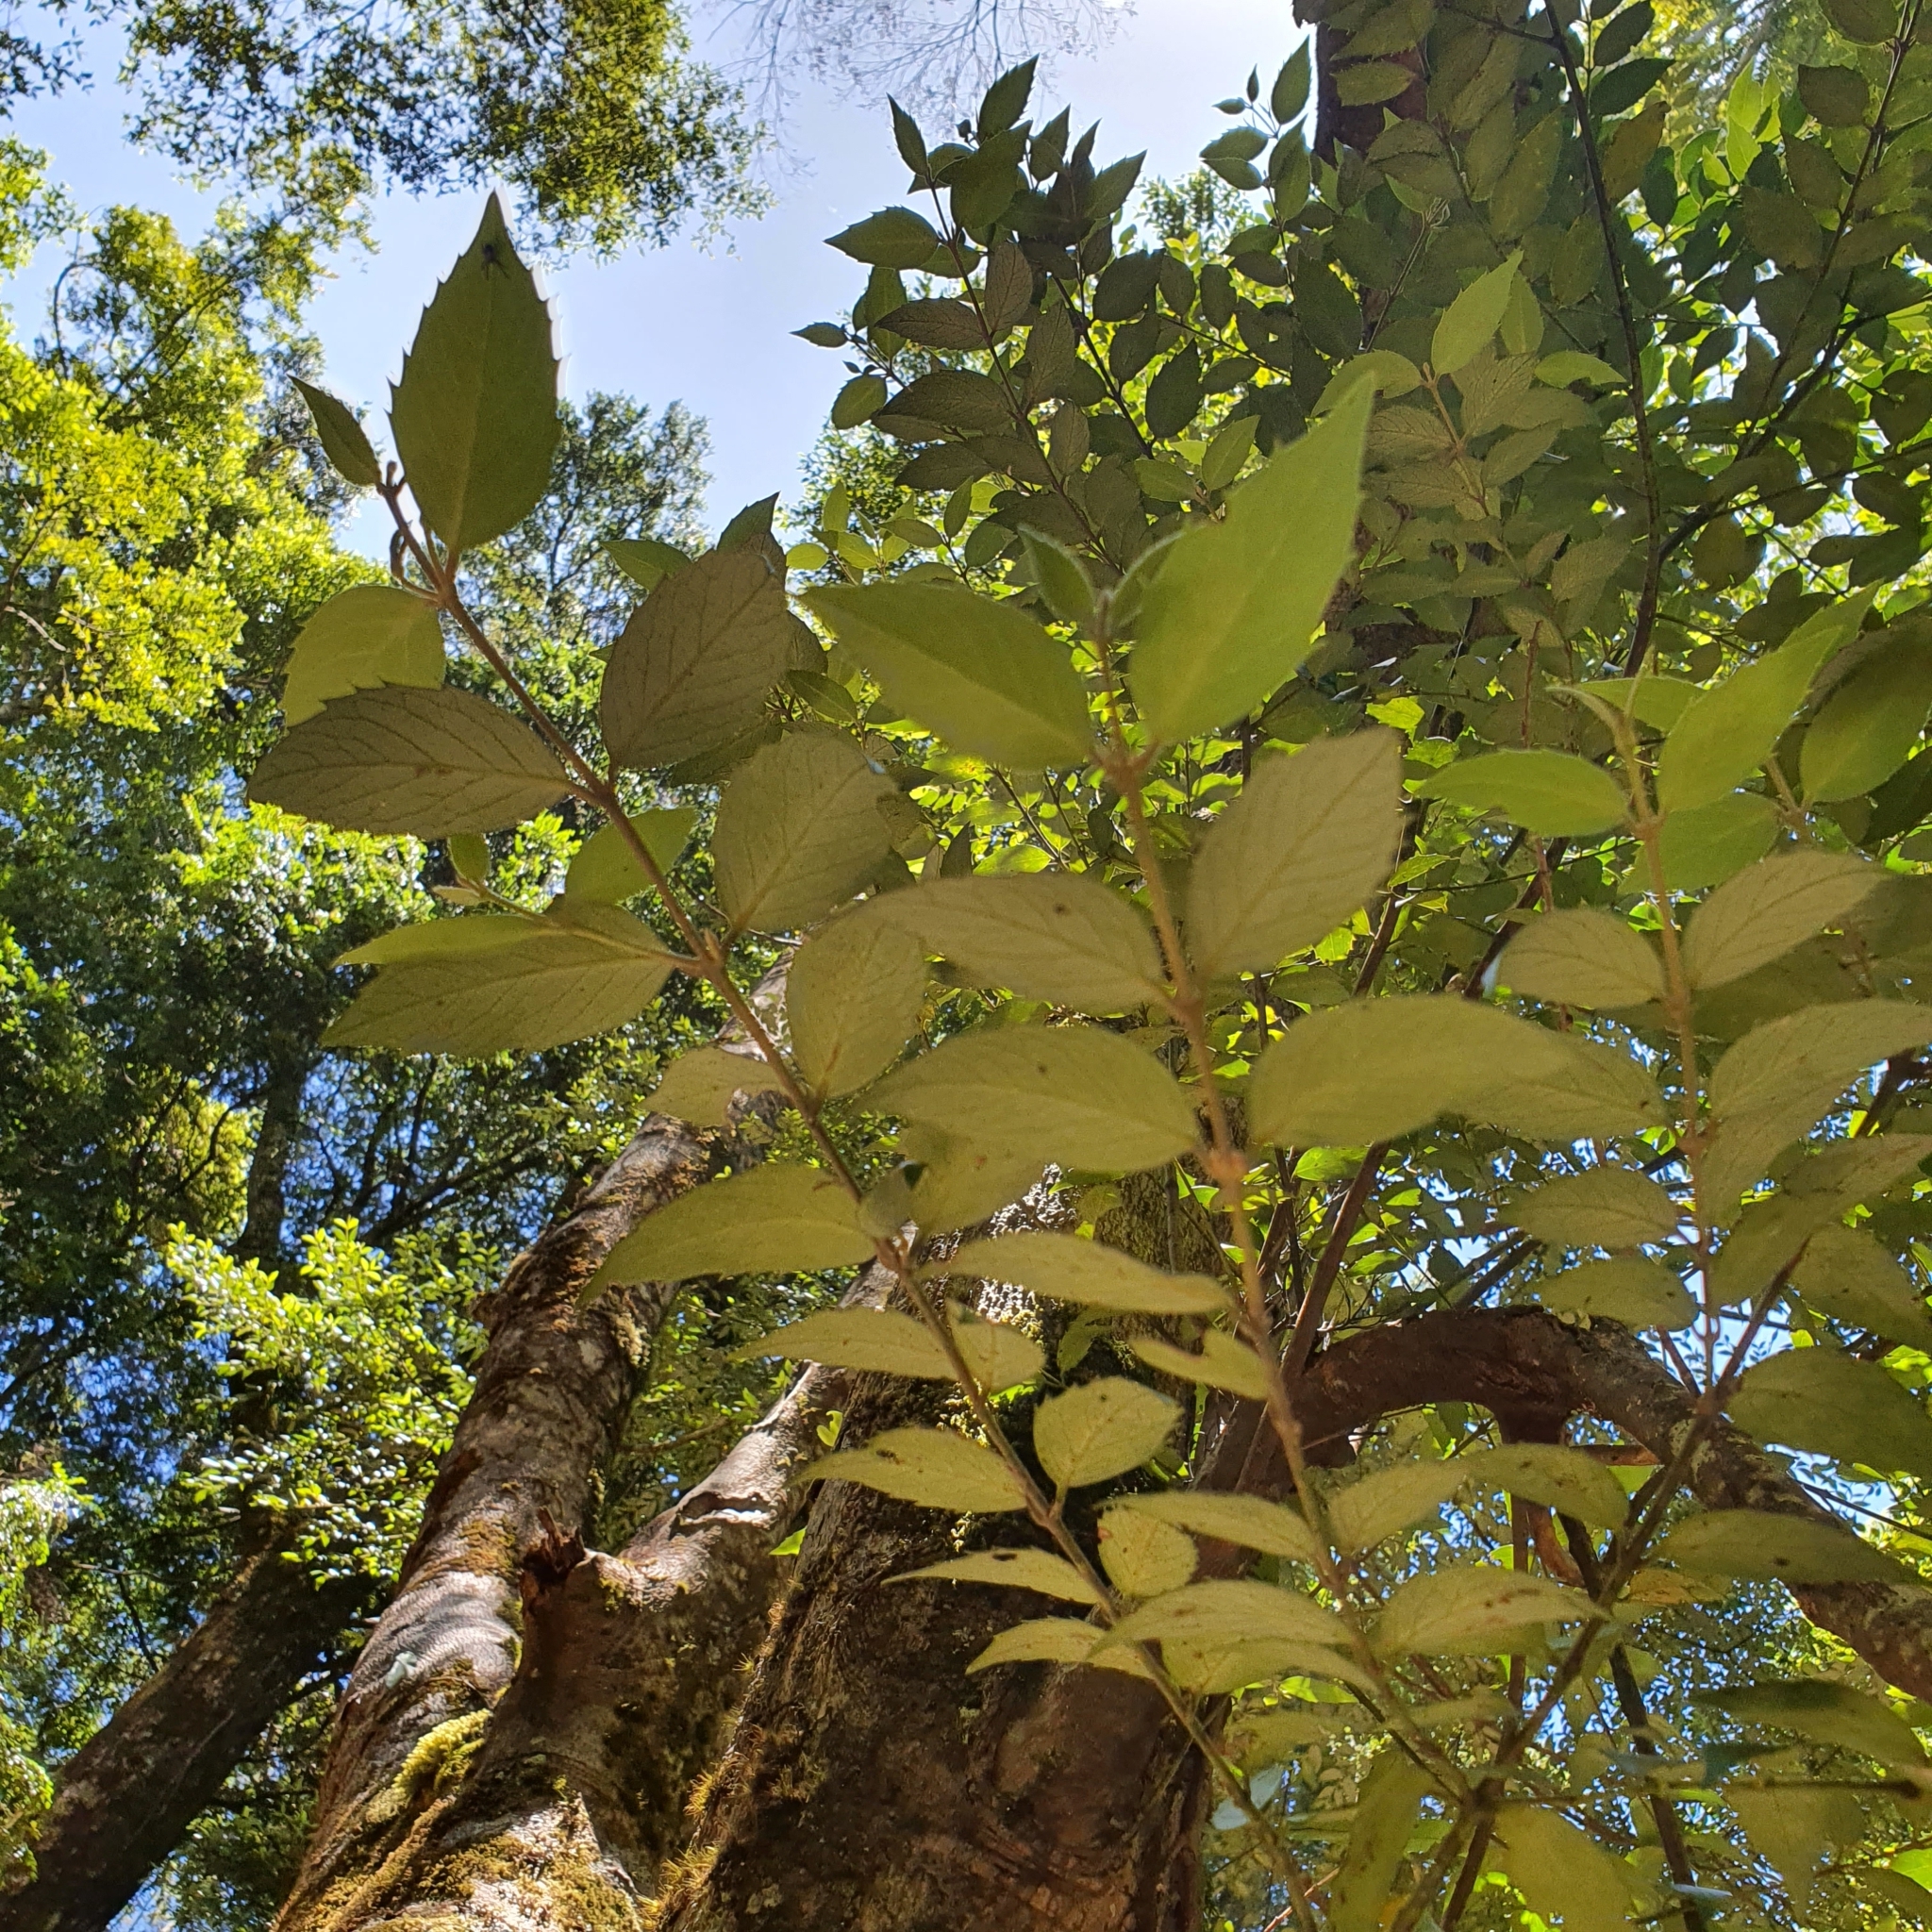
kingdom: Plantae
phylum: Tracheophyta
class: Magnoliopsida
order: Laurales
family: Atherospermataceae
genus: Atherosperma
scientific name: Atherosperma moschatum
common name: Tasmanian-sassafras
